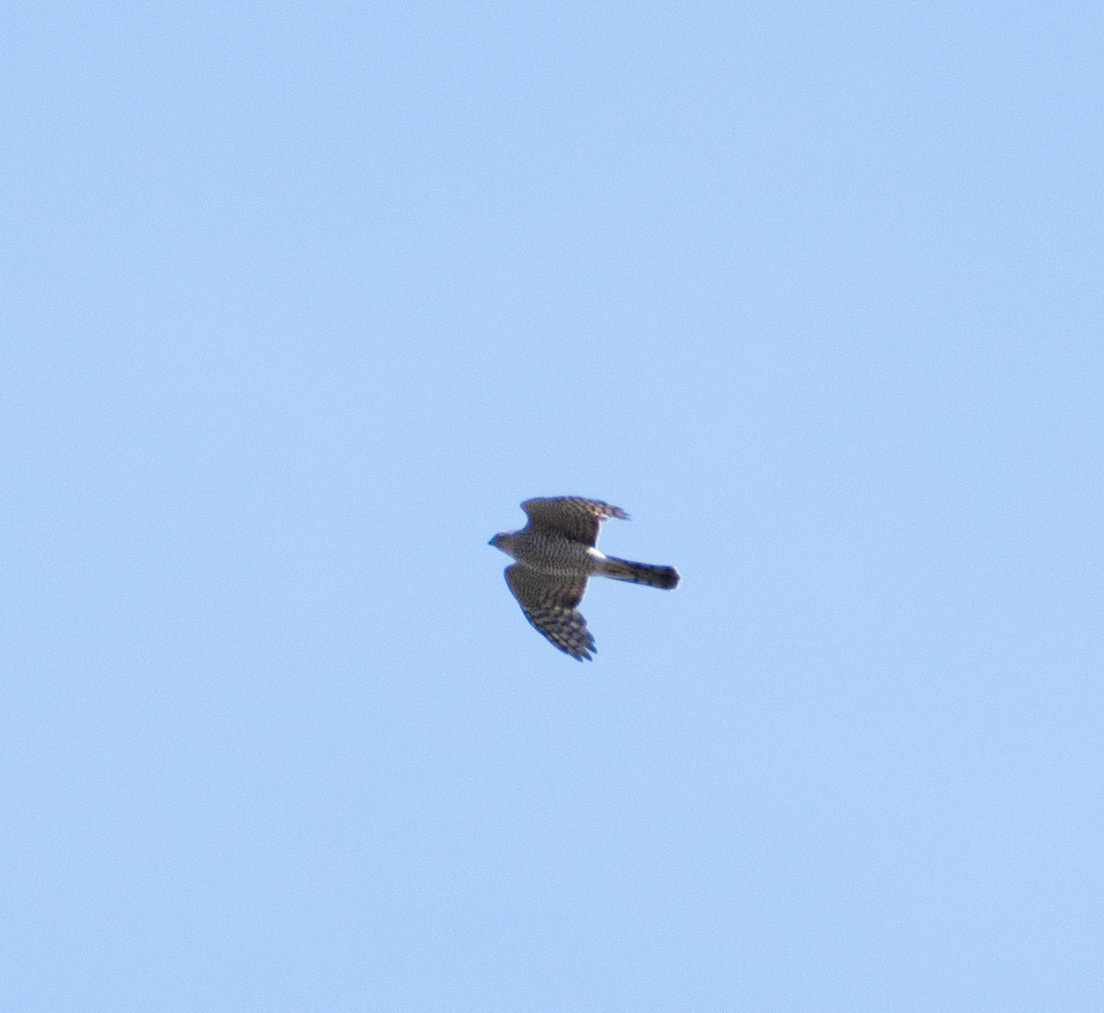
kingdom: Animalia
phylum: Chordata
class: Aves
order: Accipitriformes
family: Accipitridae
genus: Accipiter
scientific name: Accipiter nisus
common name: Eurasian sparrowhawk
